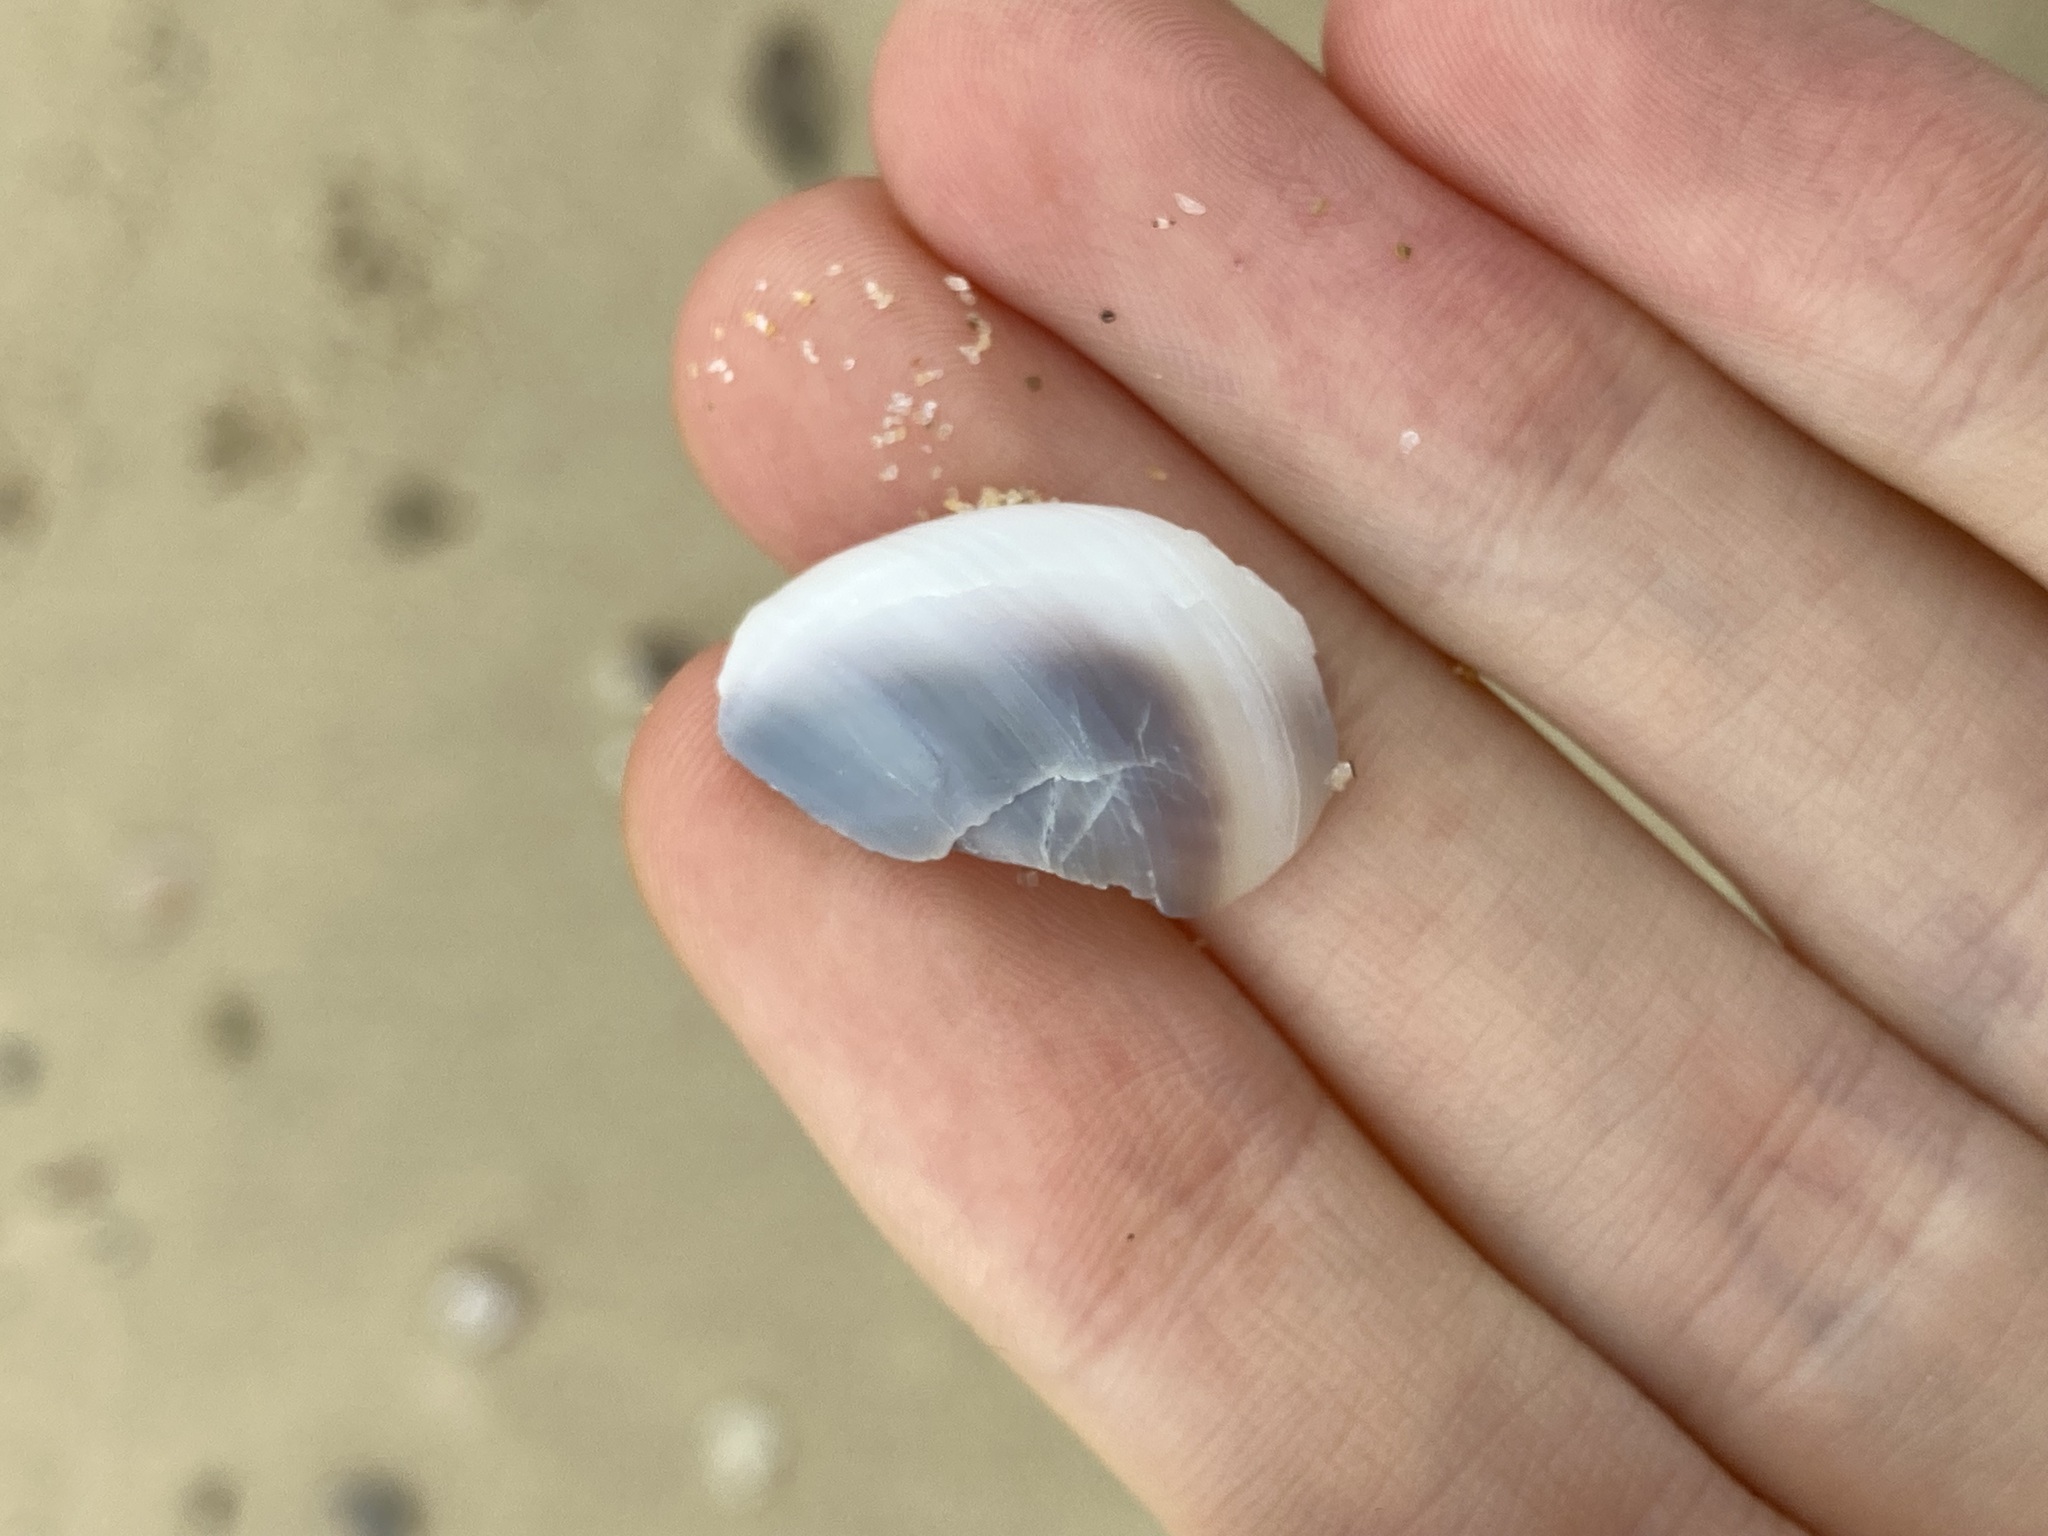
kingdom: Animalia
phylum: Mollusca
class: Gastropoda
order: Littorinimorpha
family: Naticidae
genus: Conuber
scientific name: Conuber incei
